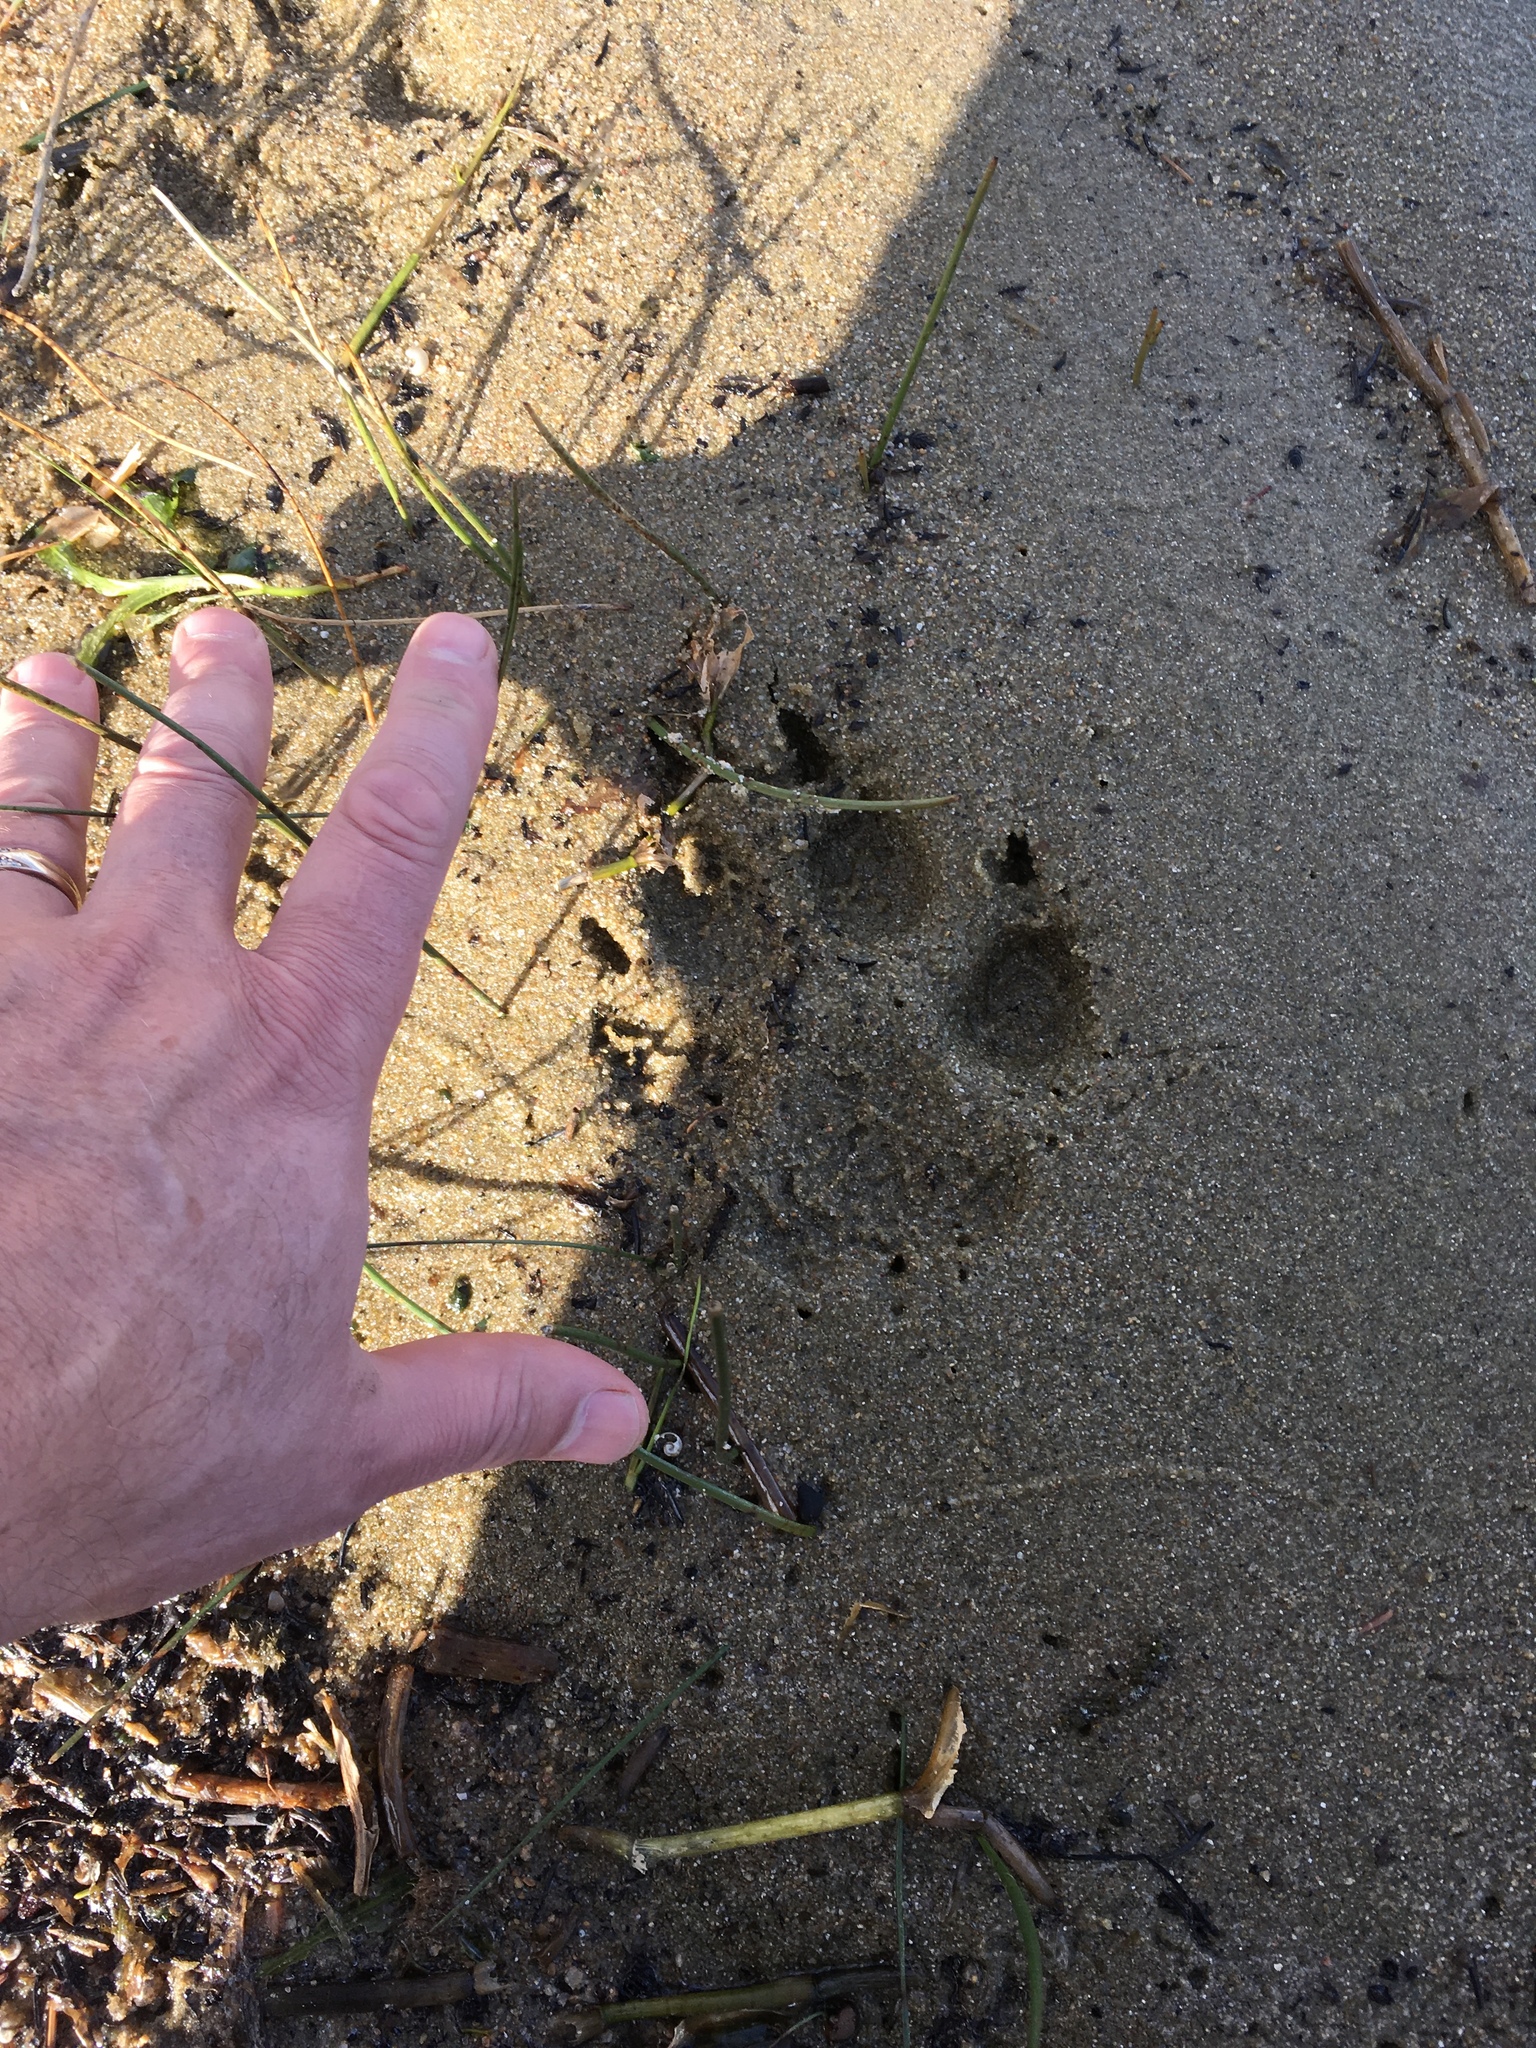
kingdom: Animalia
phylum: Chordata
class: Mammalia
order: Carnivora
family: Canidae
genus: Canis
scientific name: Canis lupus
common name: Gray wolf
